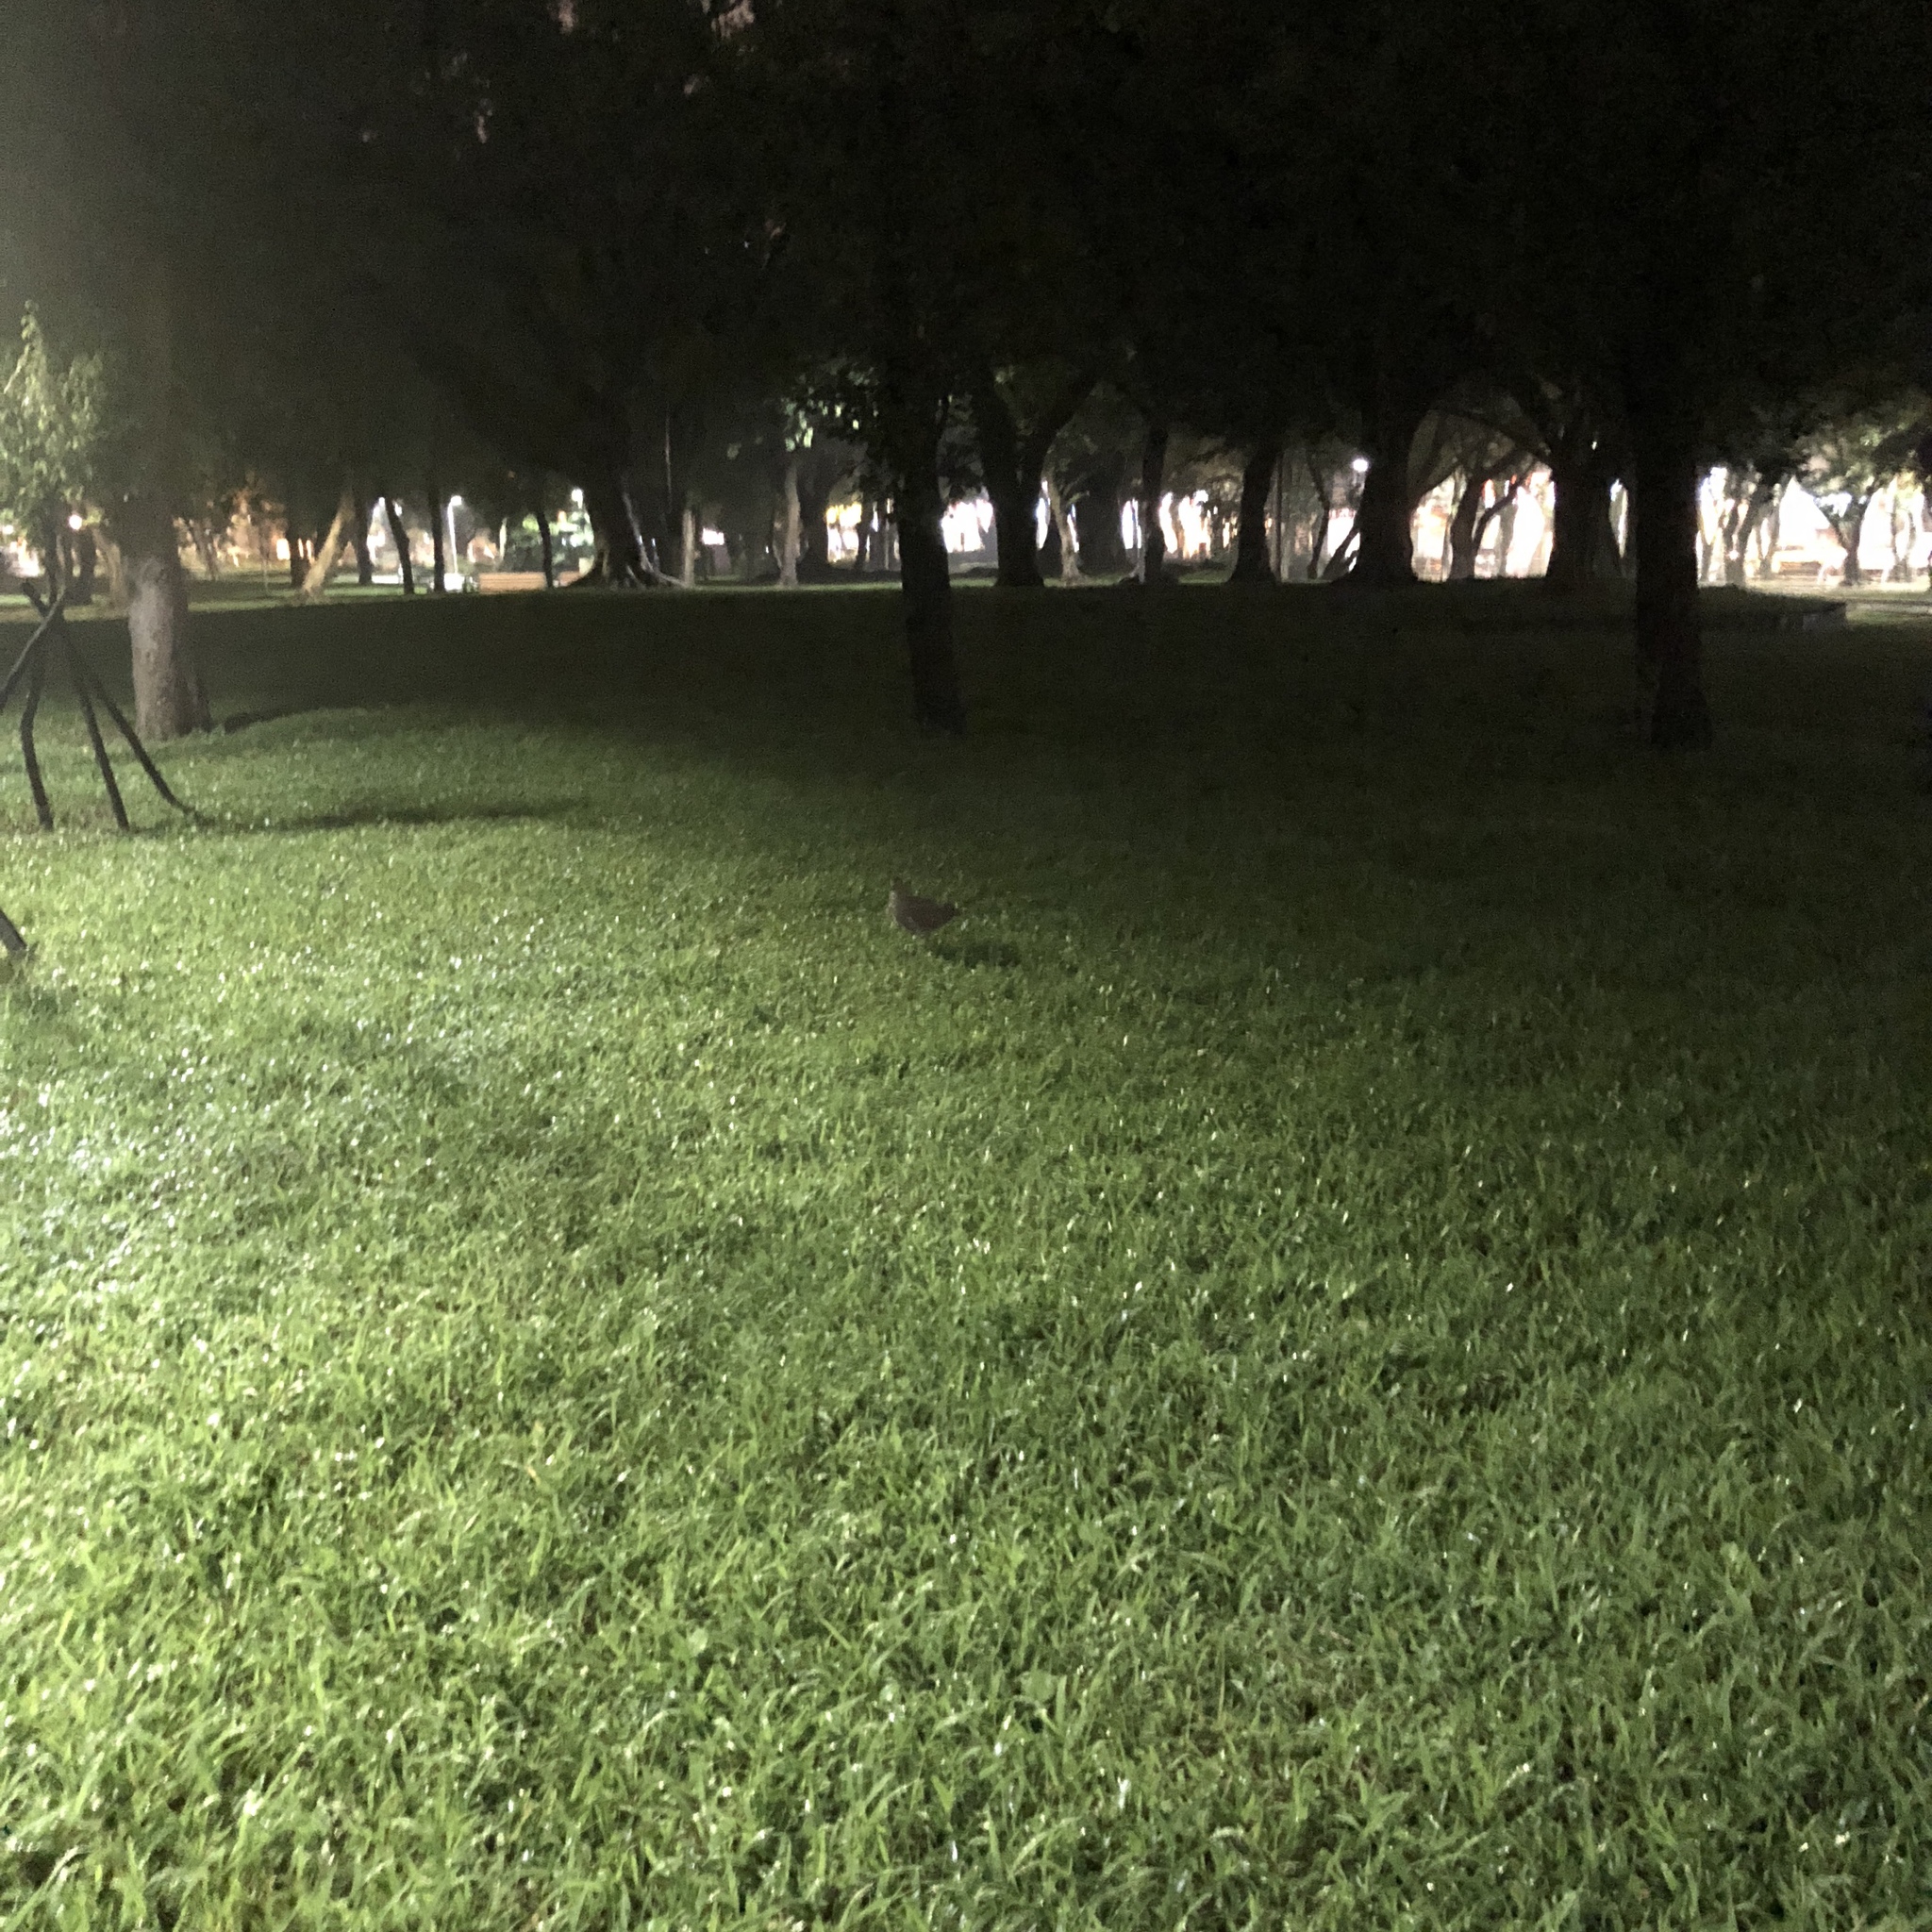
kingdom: Animalia
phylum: Chordata
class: Aves
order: Pelecaniformes
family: Ardeidae
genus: Gorsachius
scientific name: Gorsachius melanolophus
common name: Malayan night heron
